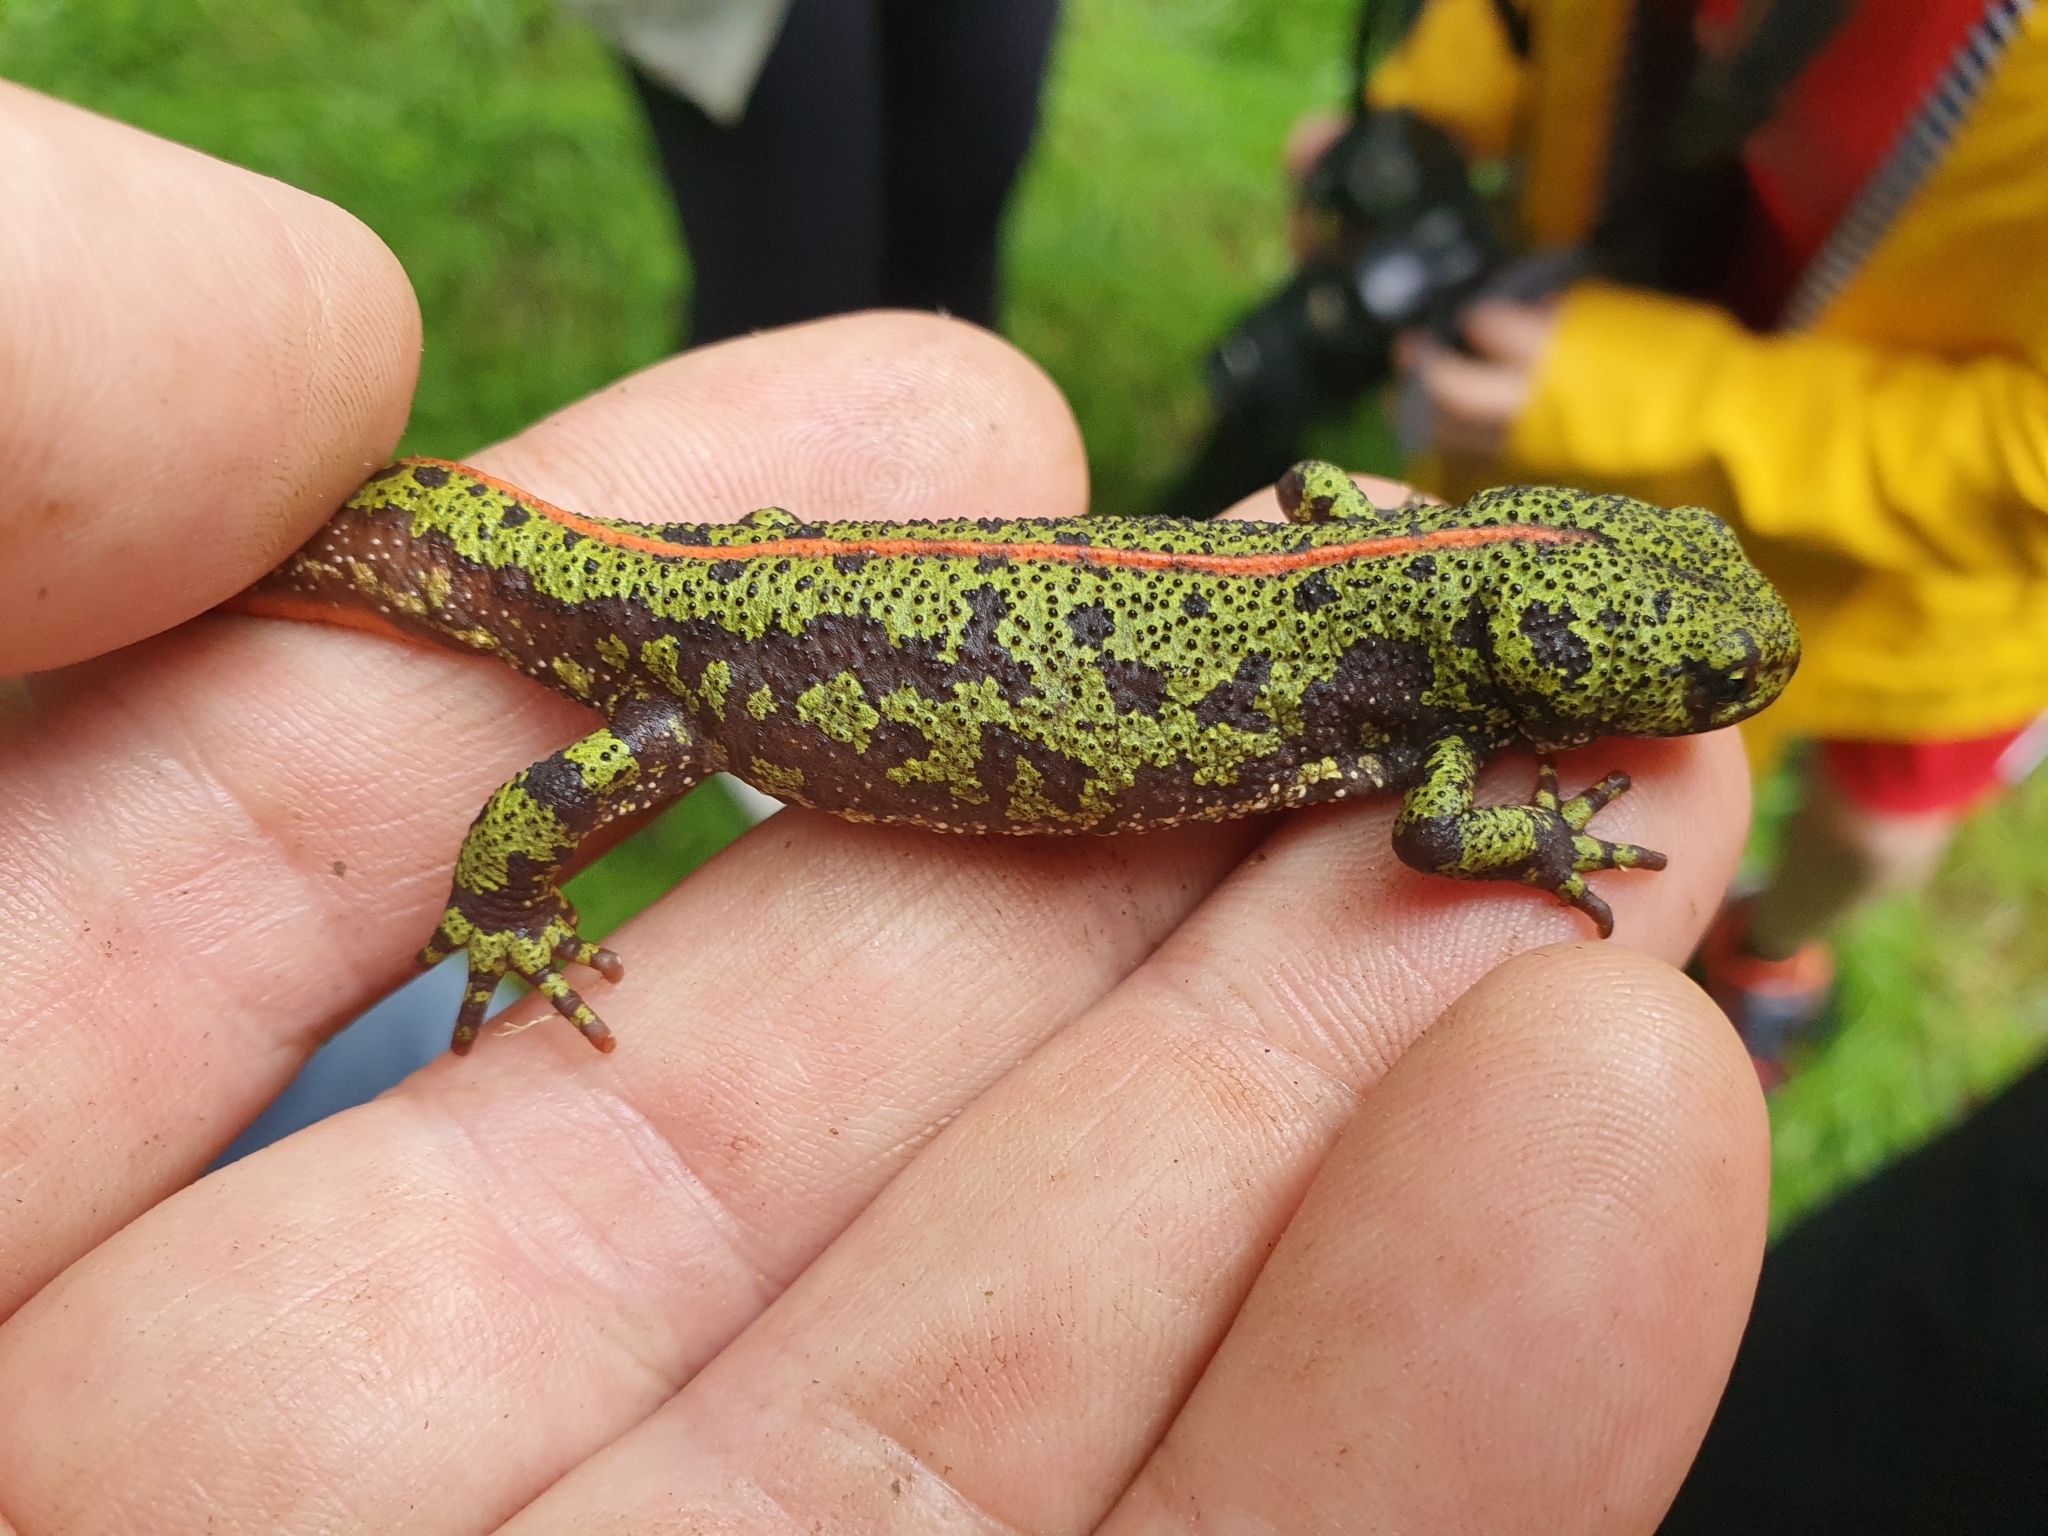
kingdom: Animalia
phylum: Chordata
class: Amphibia
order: Caudata
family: Salamandridae
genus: Triturus
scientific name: Triturus marmoratus
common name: Marbled newt
